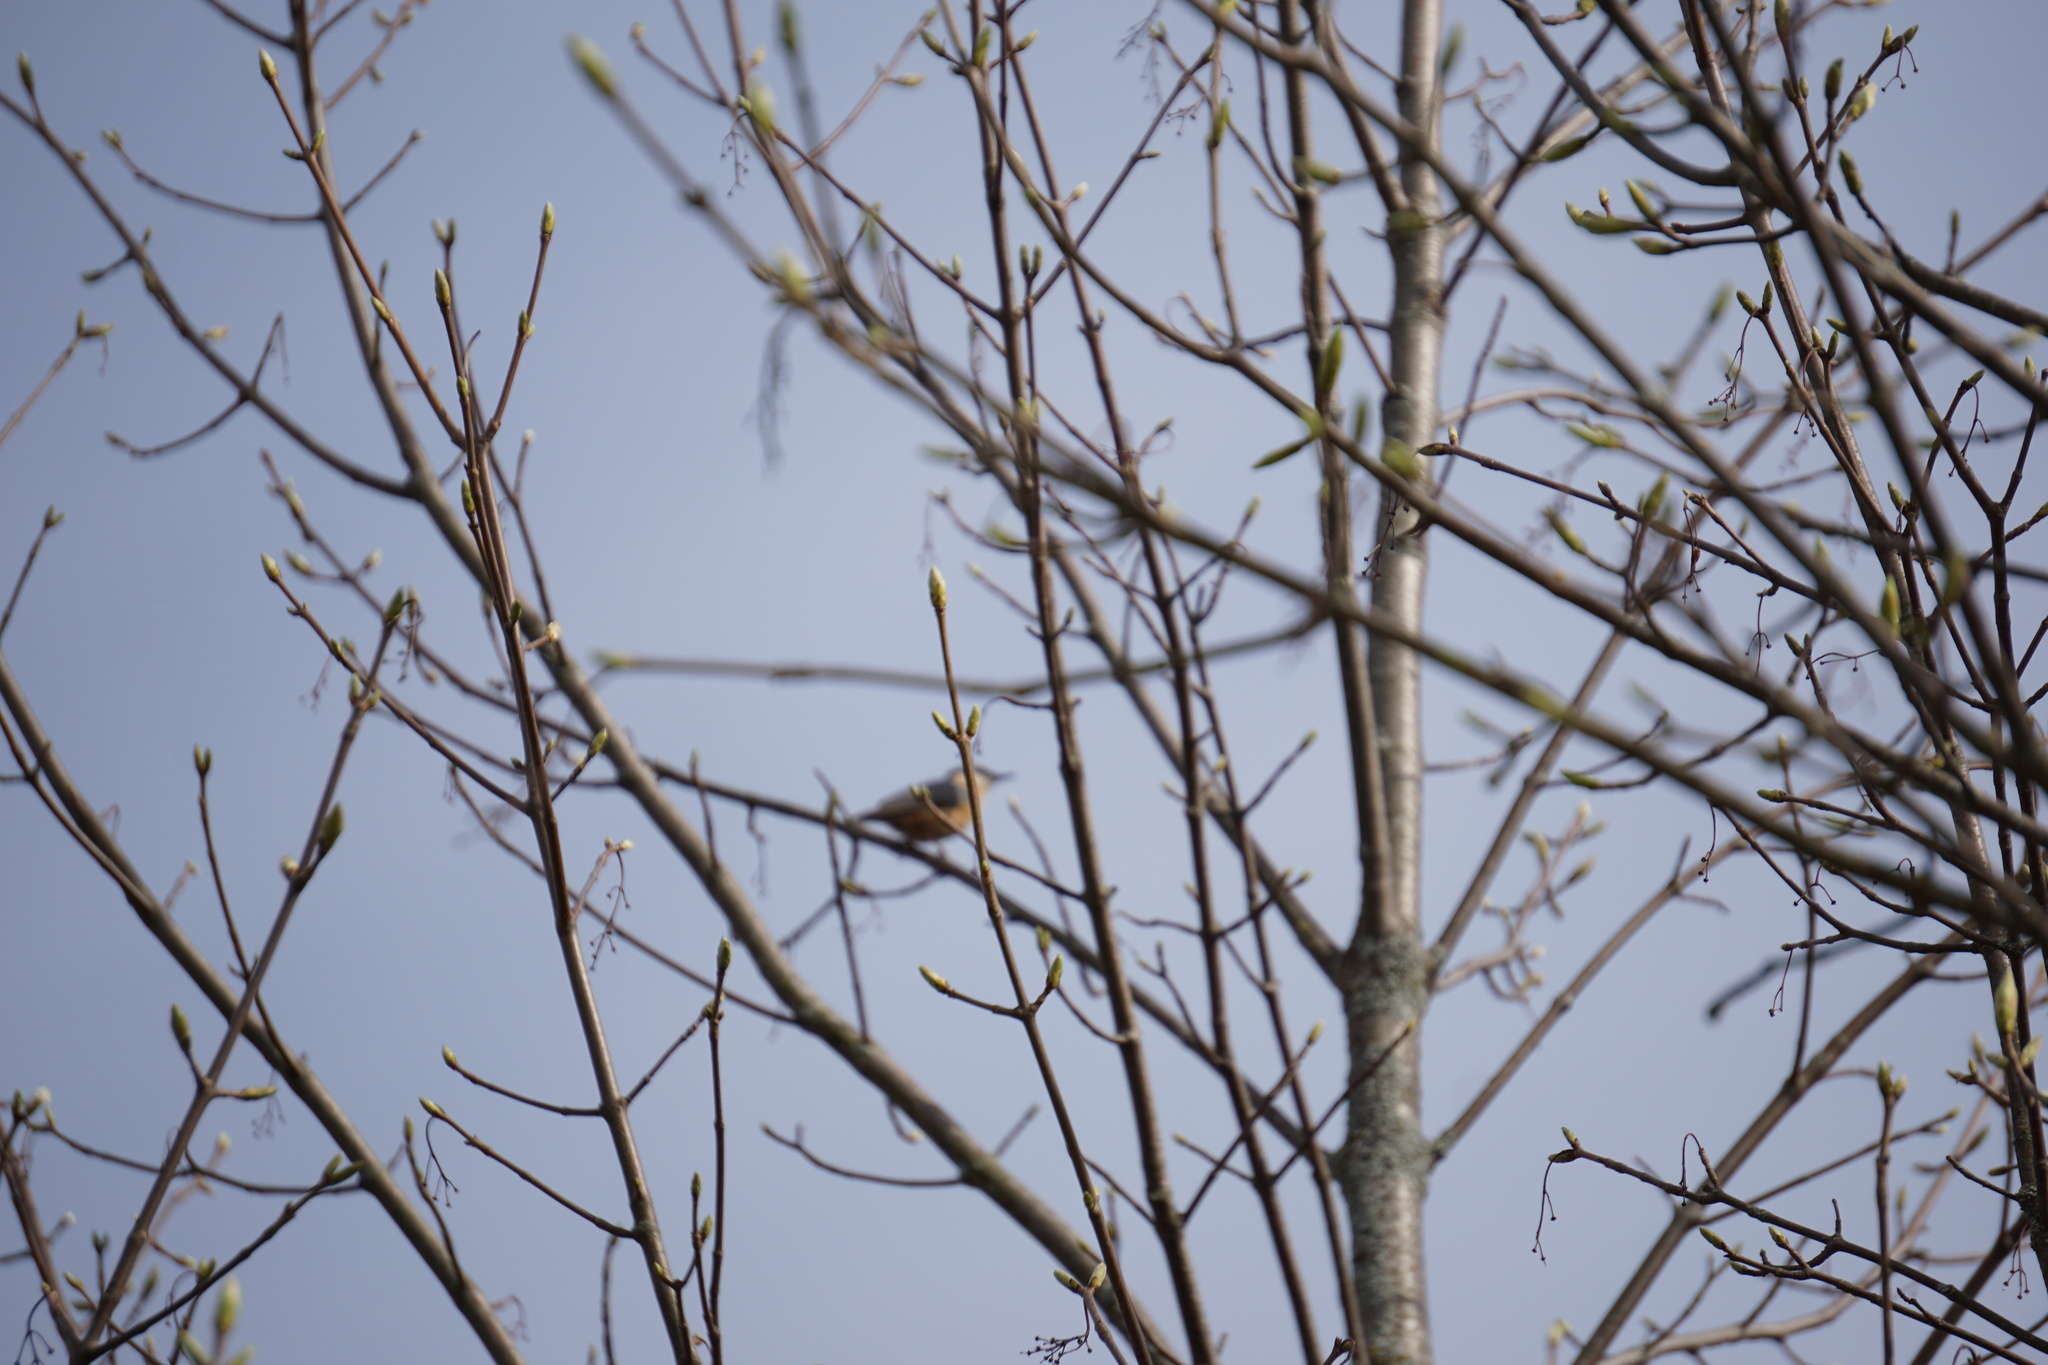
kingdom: Animalia
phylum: Chordata
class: Aves
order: Passeriformes
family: Sittidae
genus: Sitta
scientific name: Sitta europaea
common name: Eurasian nuthatch
